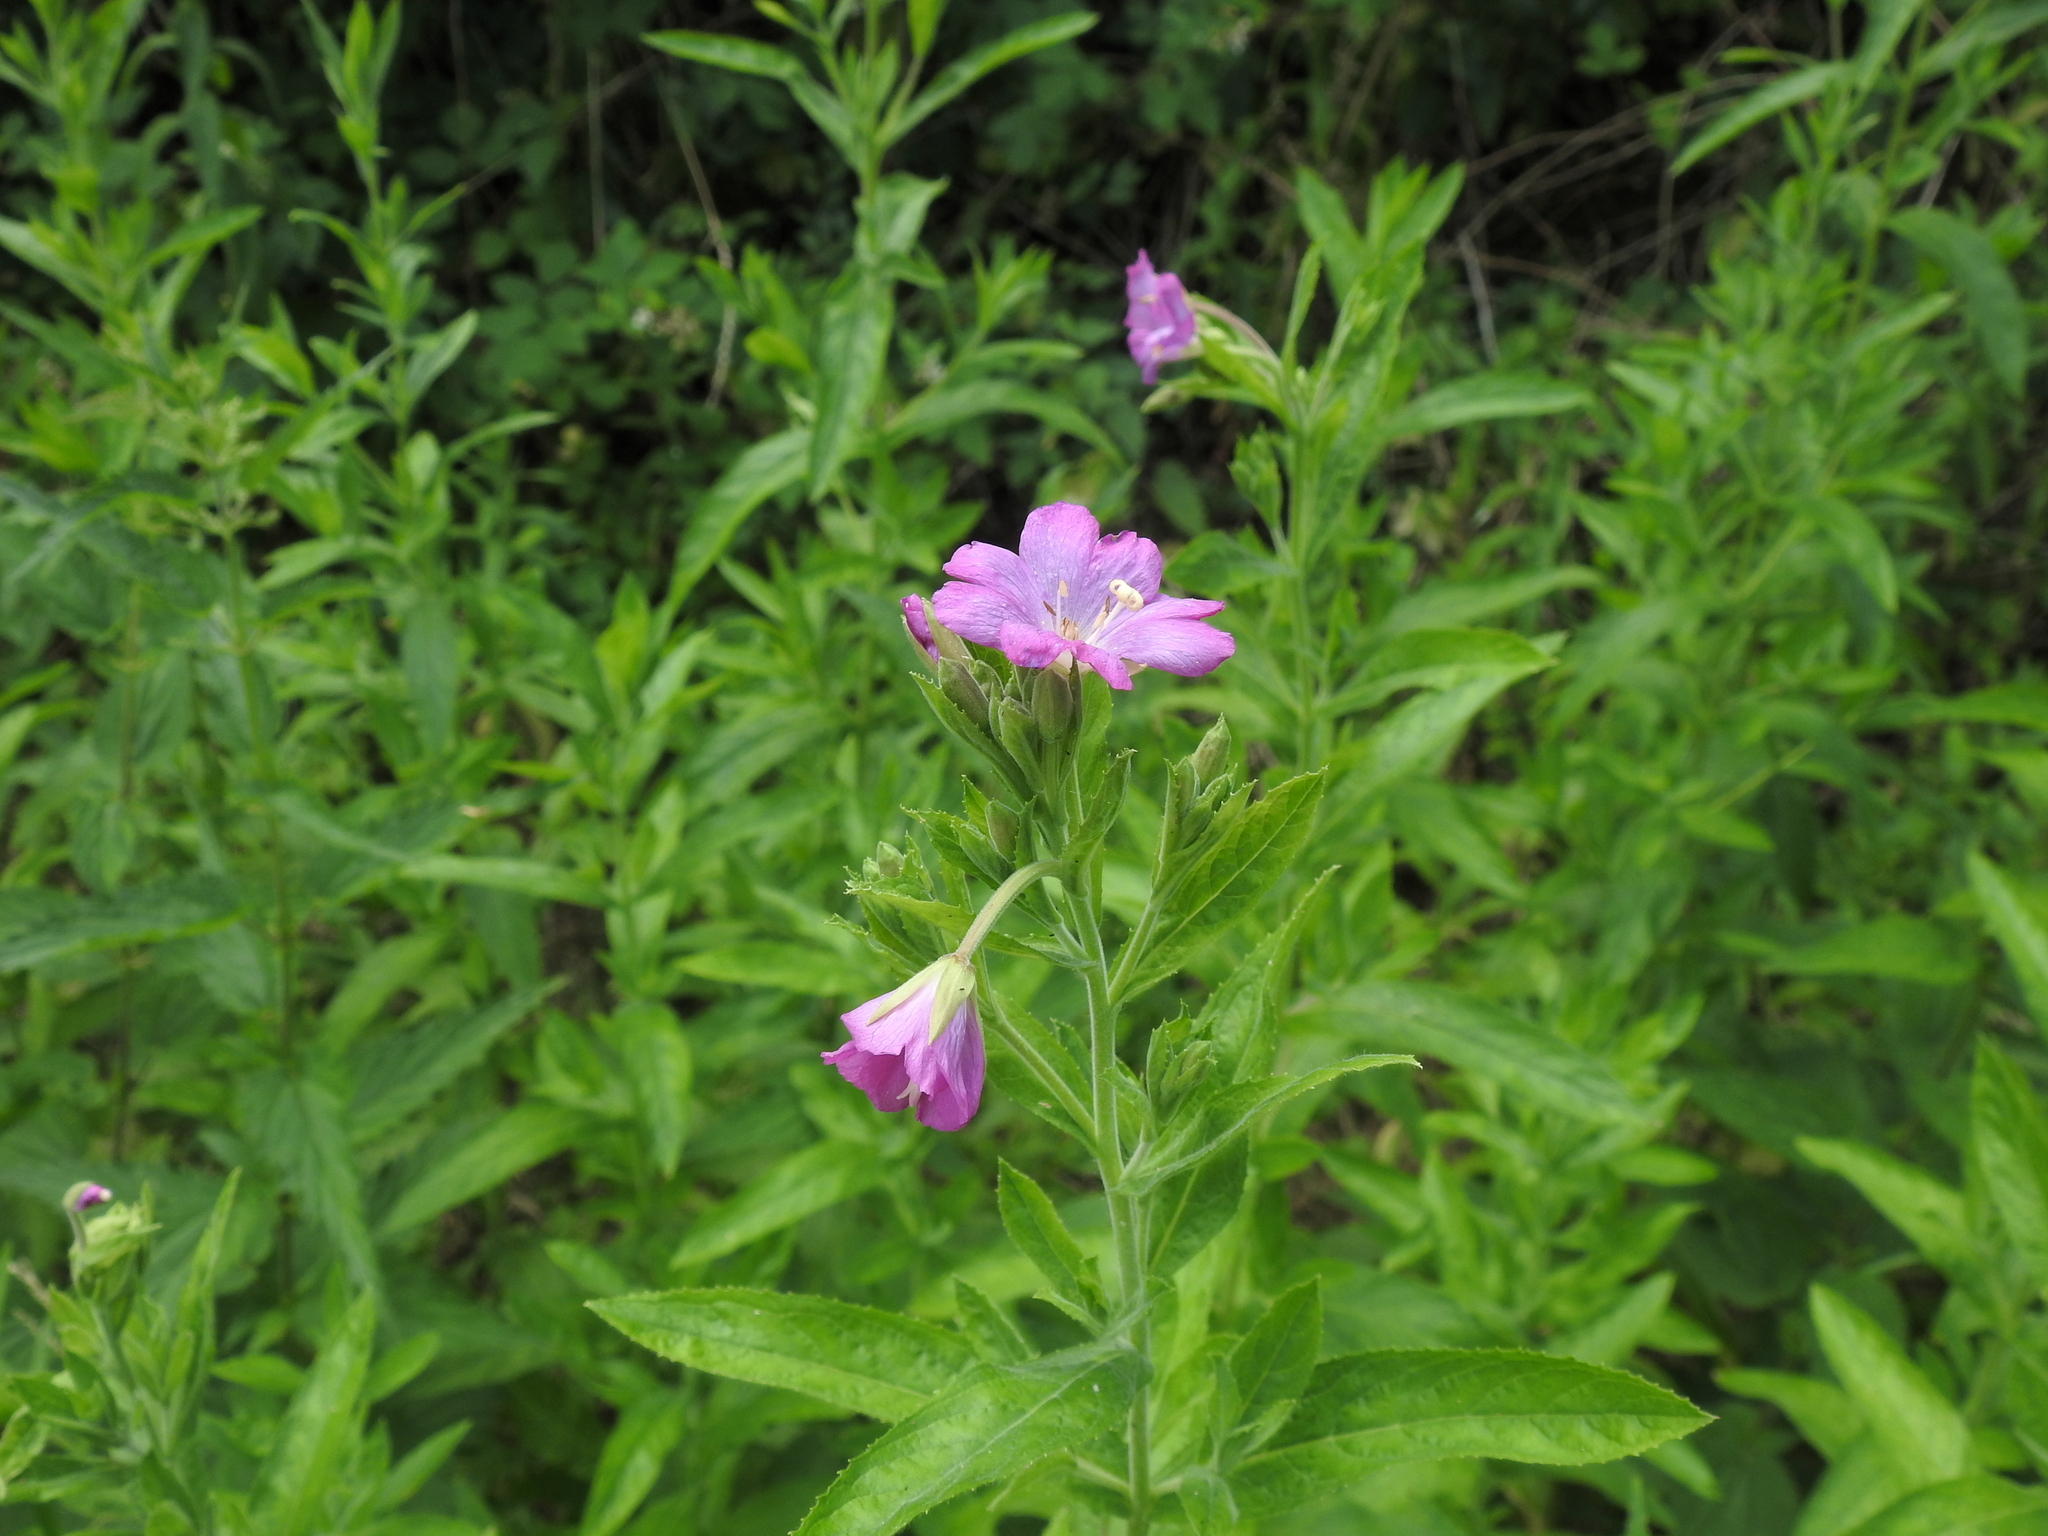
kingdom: Plantae
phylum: Tracheophyta
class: Magnoliopsida
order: Myrtales
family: Onagraceae
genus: Epilobium
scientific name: Epilobium hirsutum
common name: Great willowherb
